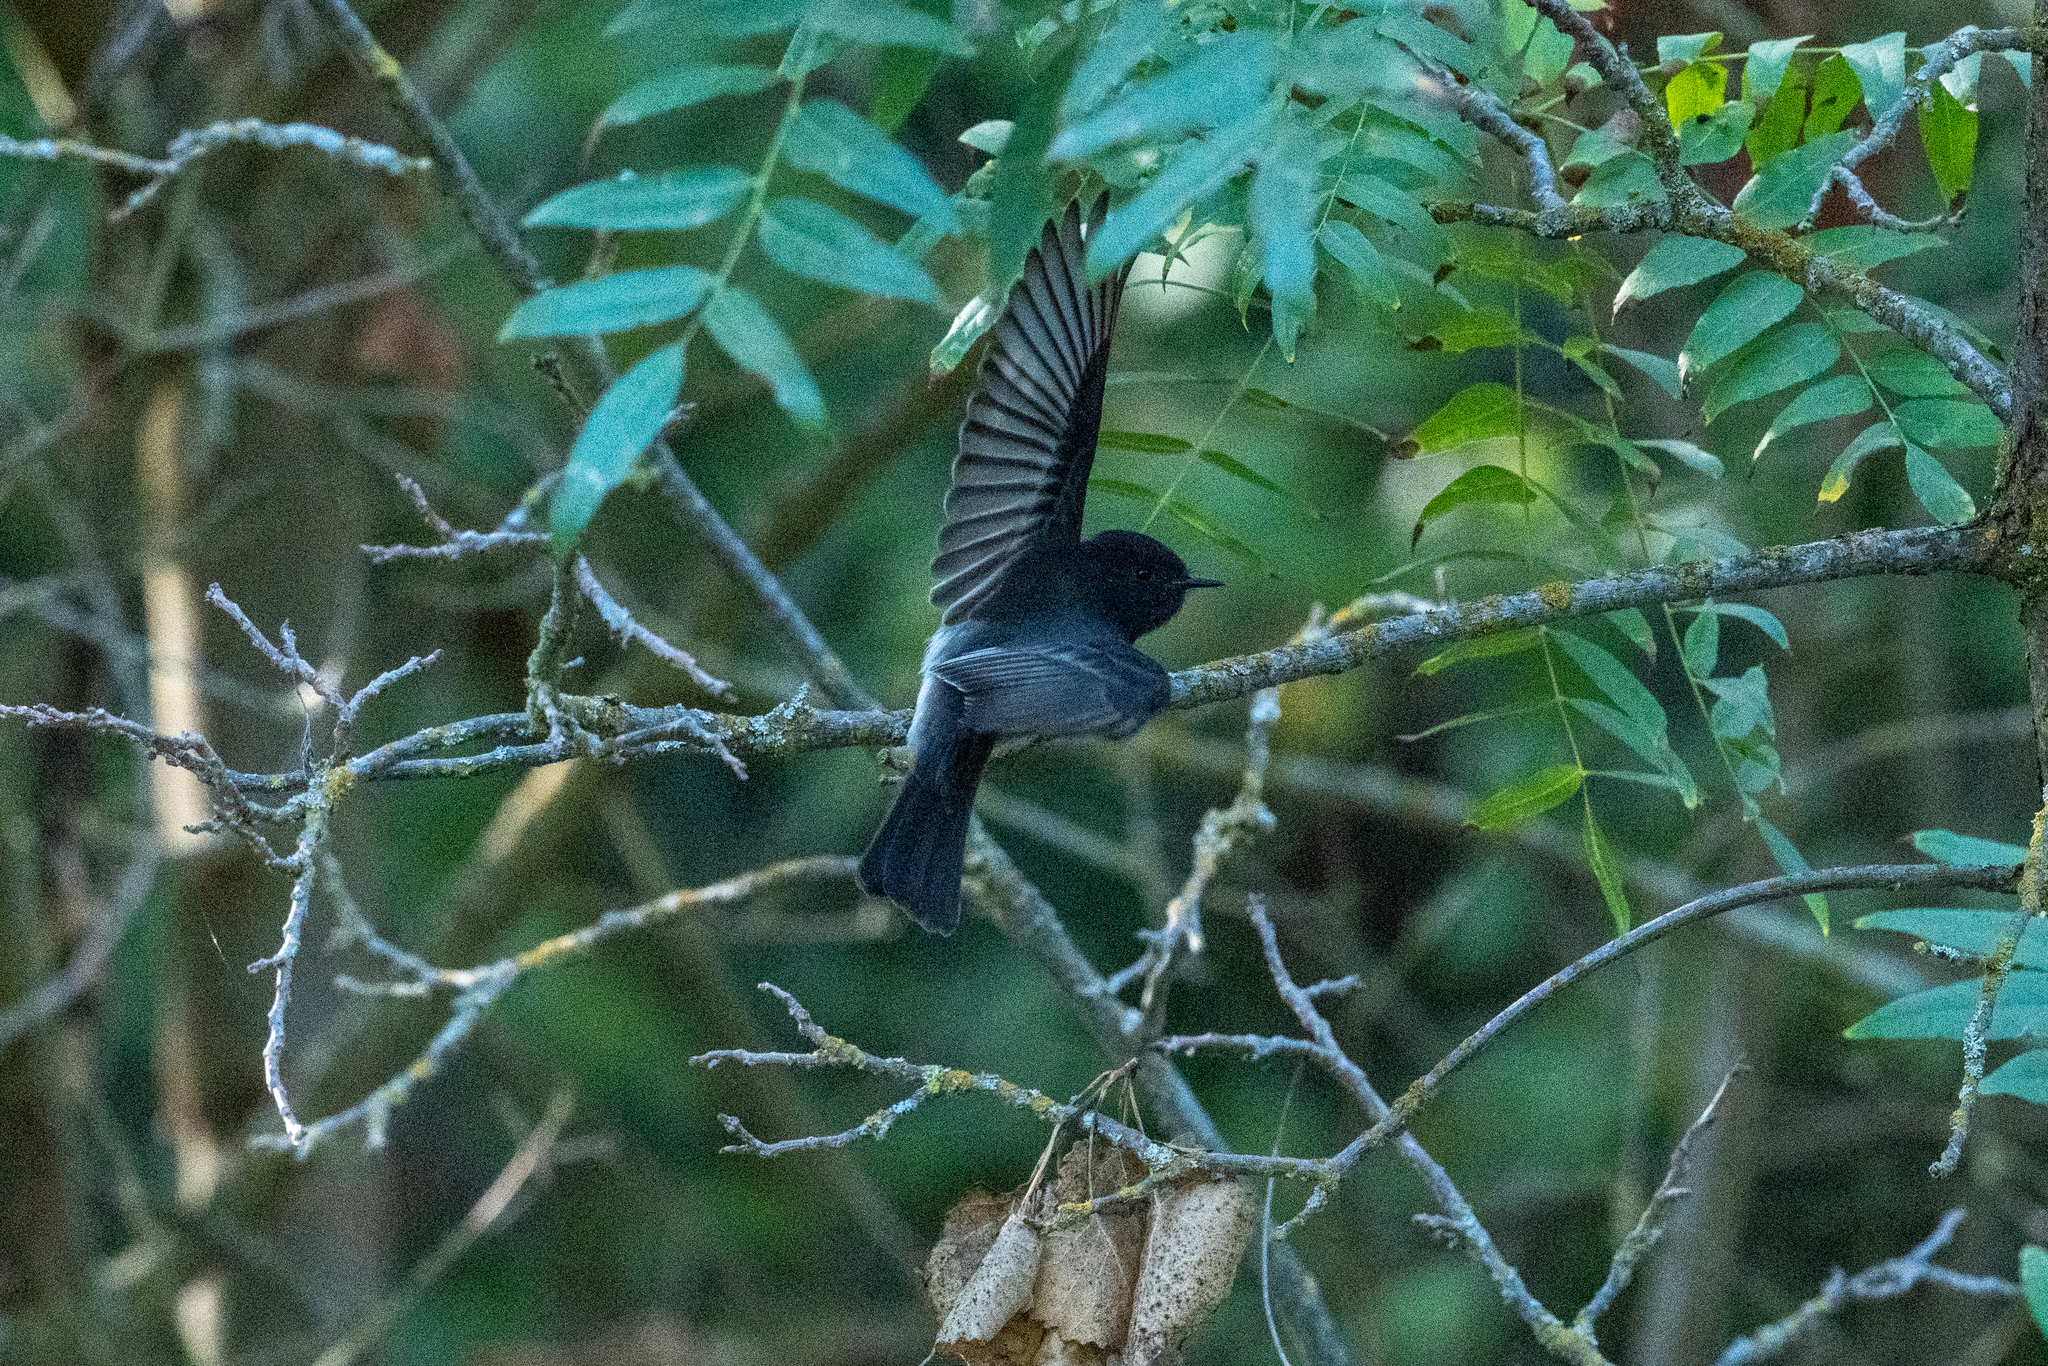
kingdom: Animalia
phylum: Chordata
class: Aves
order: Passeriformes
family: Tyrannidae
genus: Sayornis
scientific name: Sayornis nigricans
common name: Black phoebe
